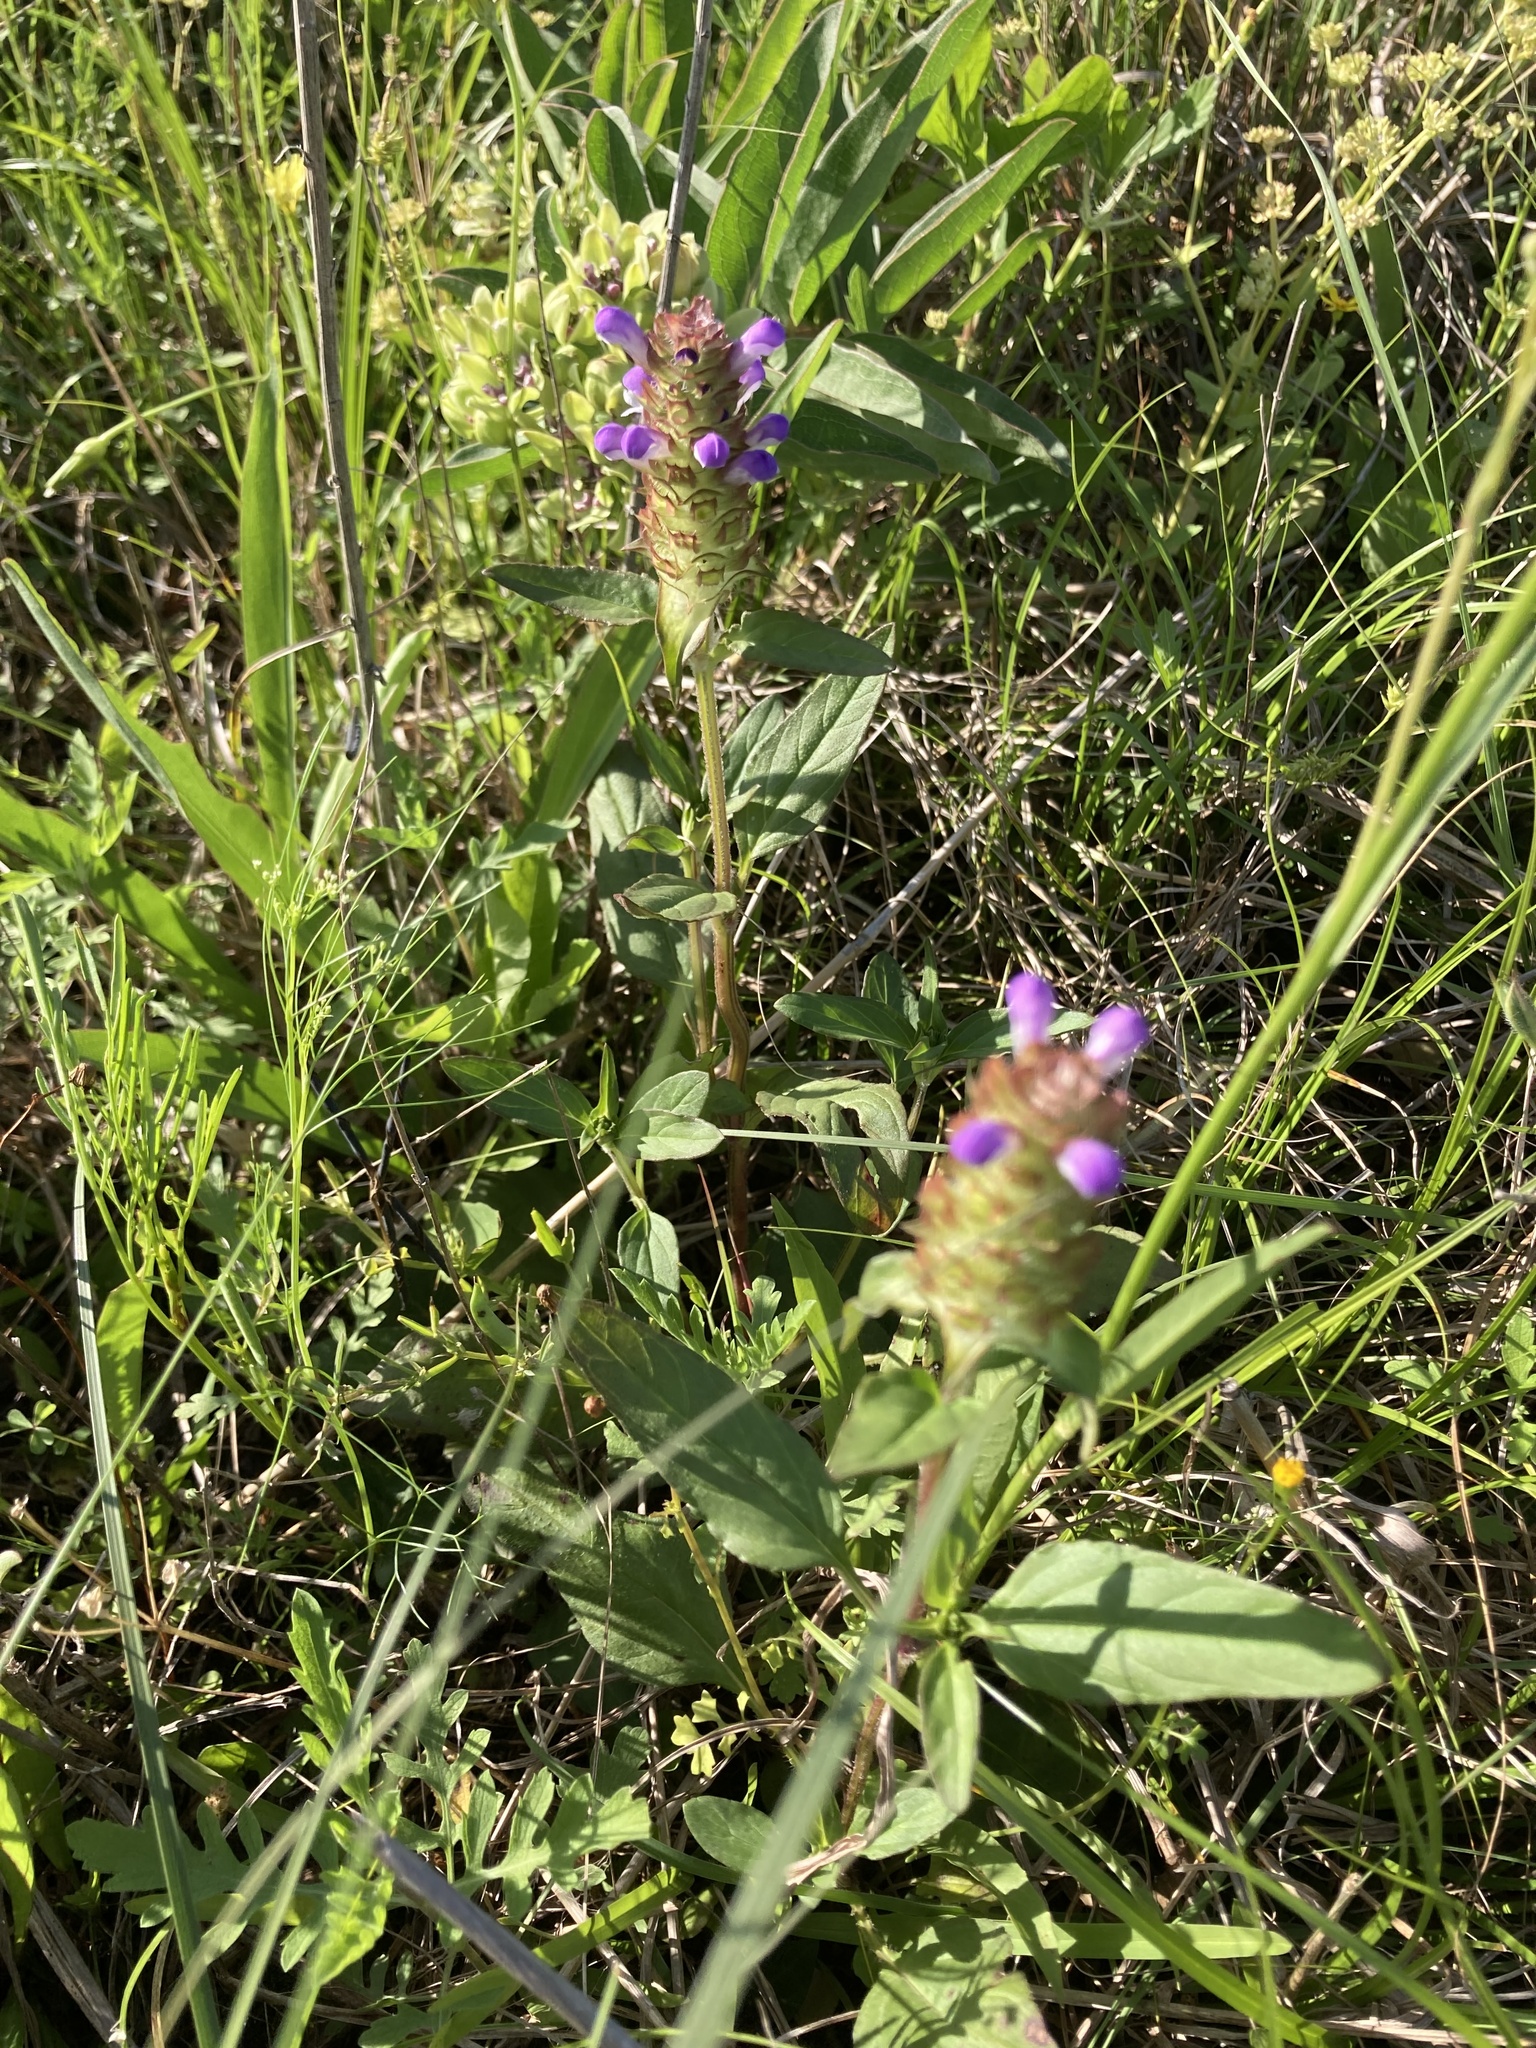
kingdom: Plantae
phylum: Tracheophyta
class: Magnoliopsida
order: Lamiales
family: Lamiaceae
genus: Prunella
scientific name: Prunella vulgaris
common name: Heal-all
